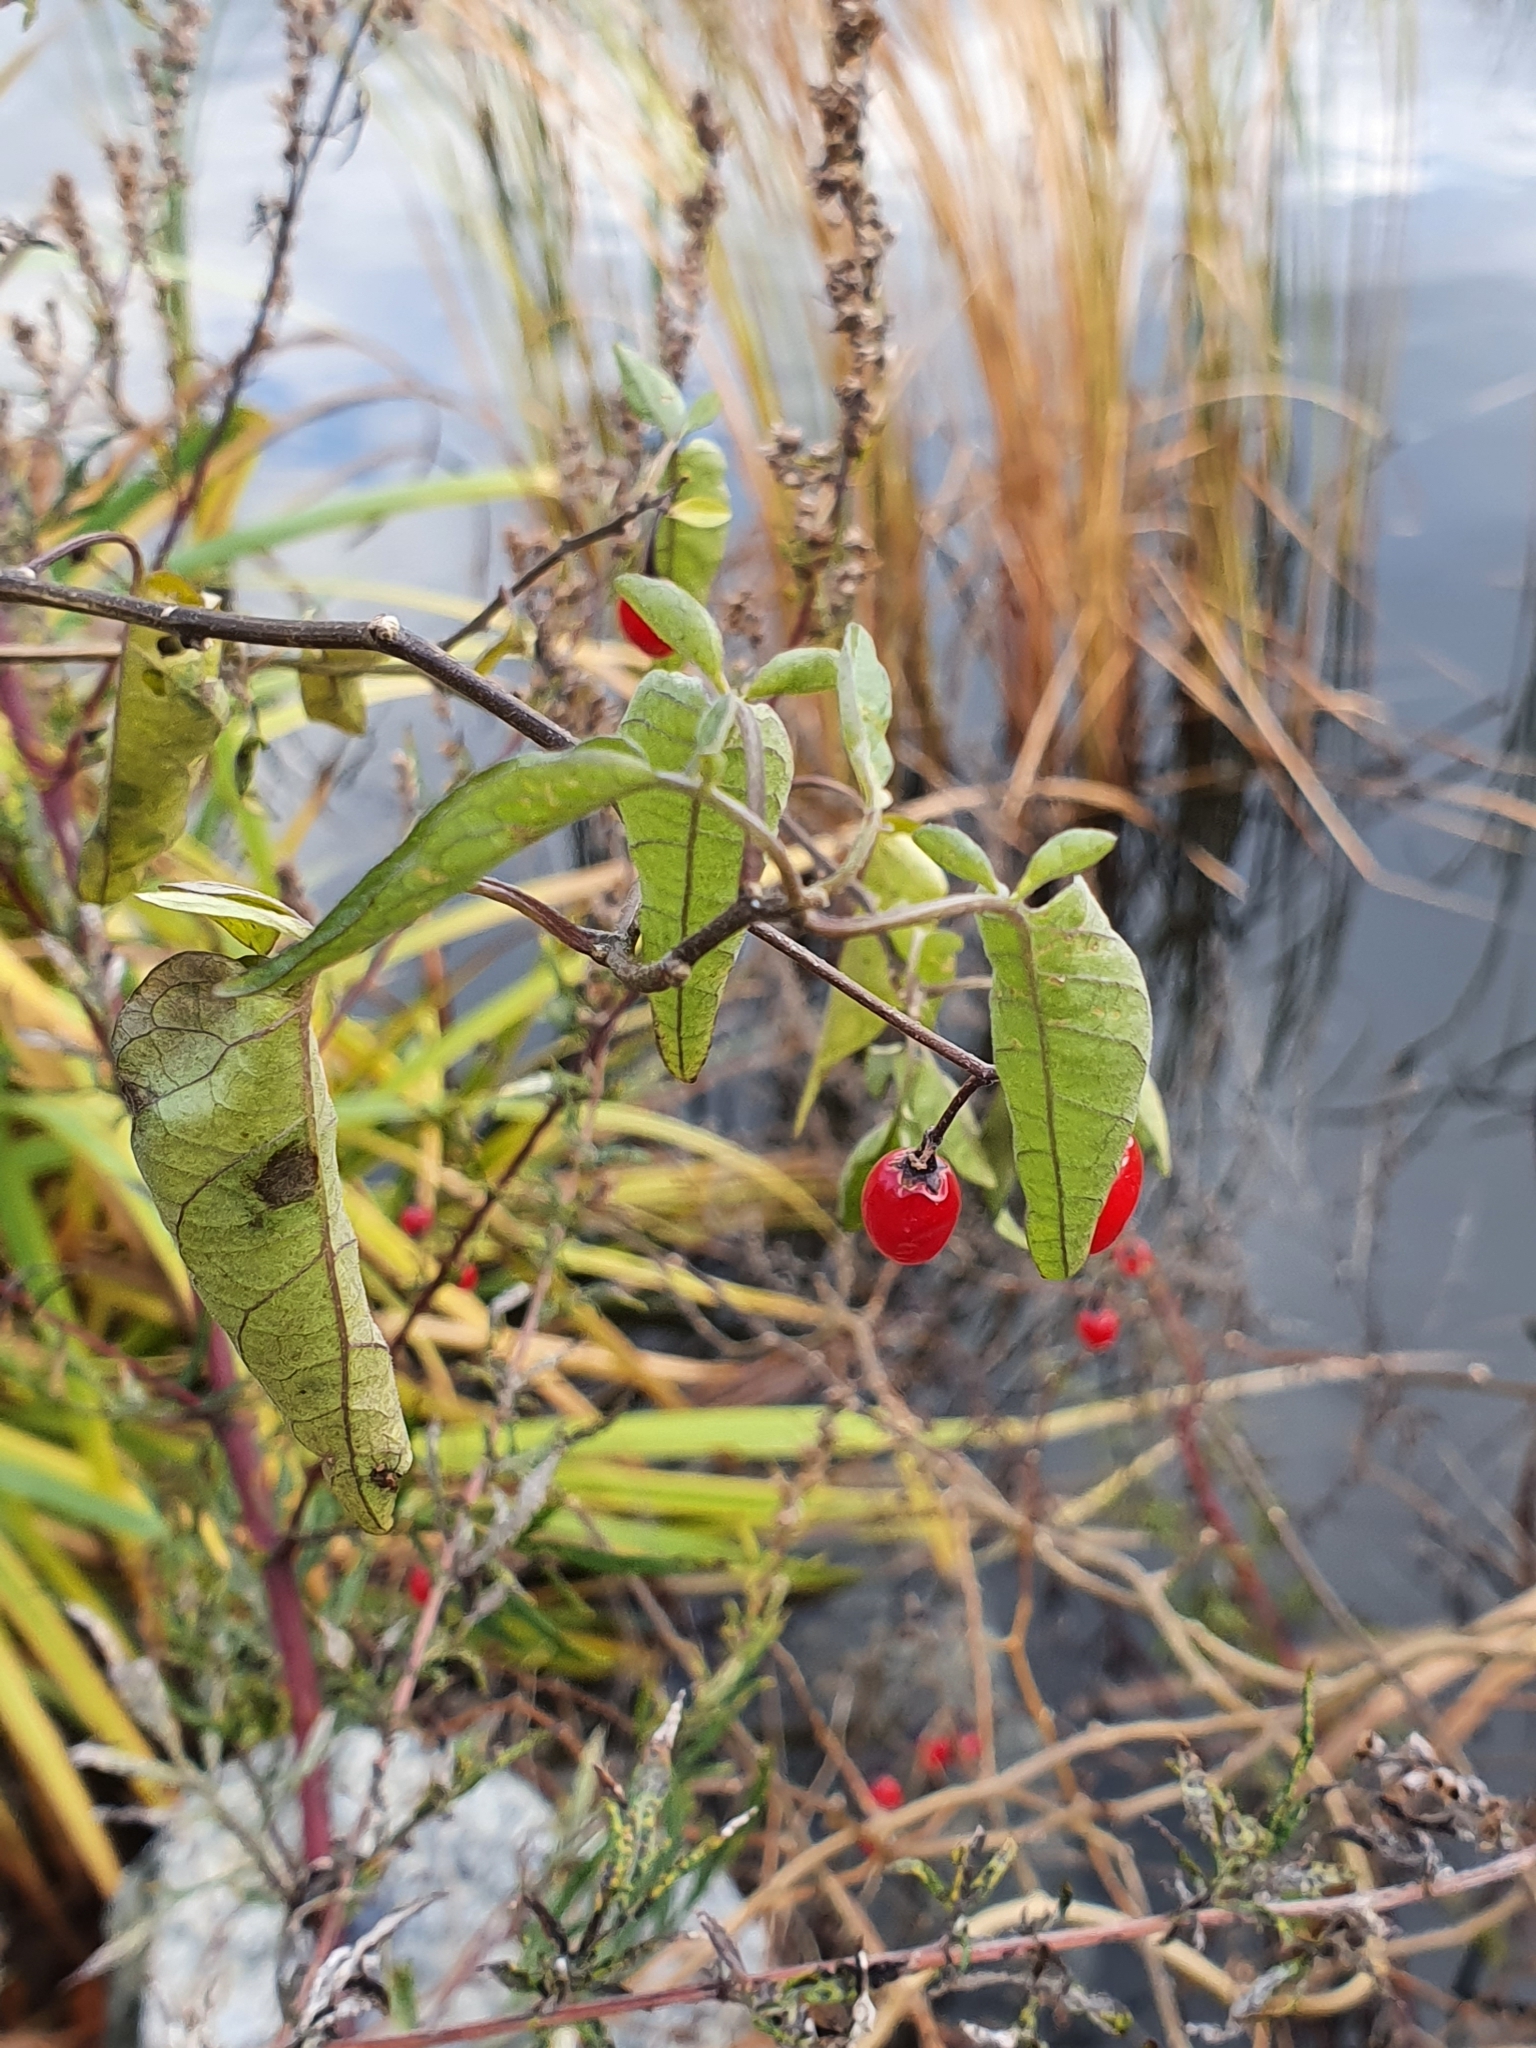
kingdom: Plantae
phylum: Tracheophyta
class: Magnoliopsida
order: Solanales
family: Solanaceae
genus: Solanum
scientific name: Solanum dulcamara
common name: Climbing nightshade
